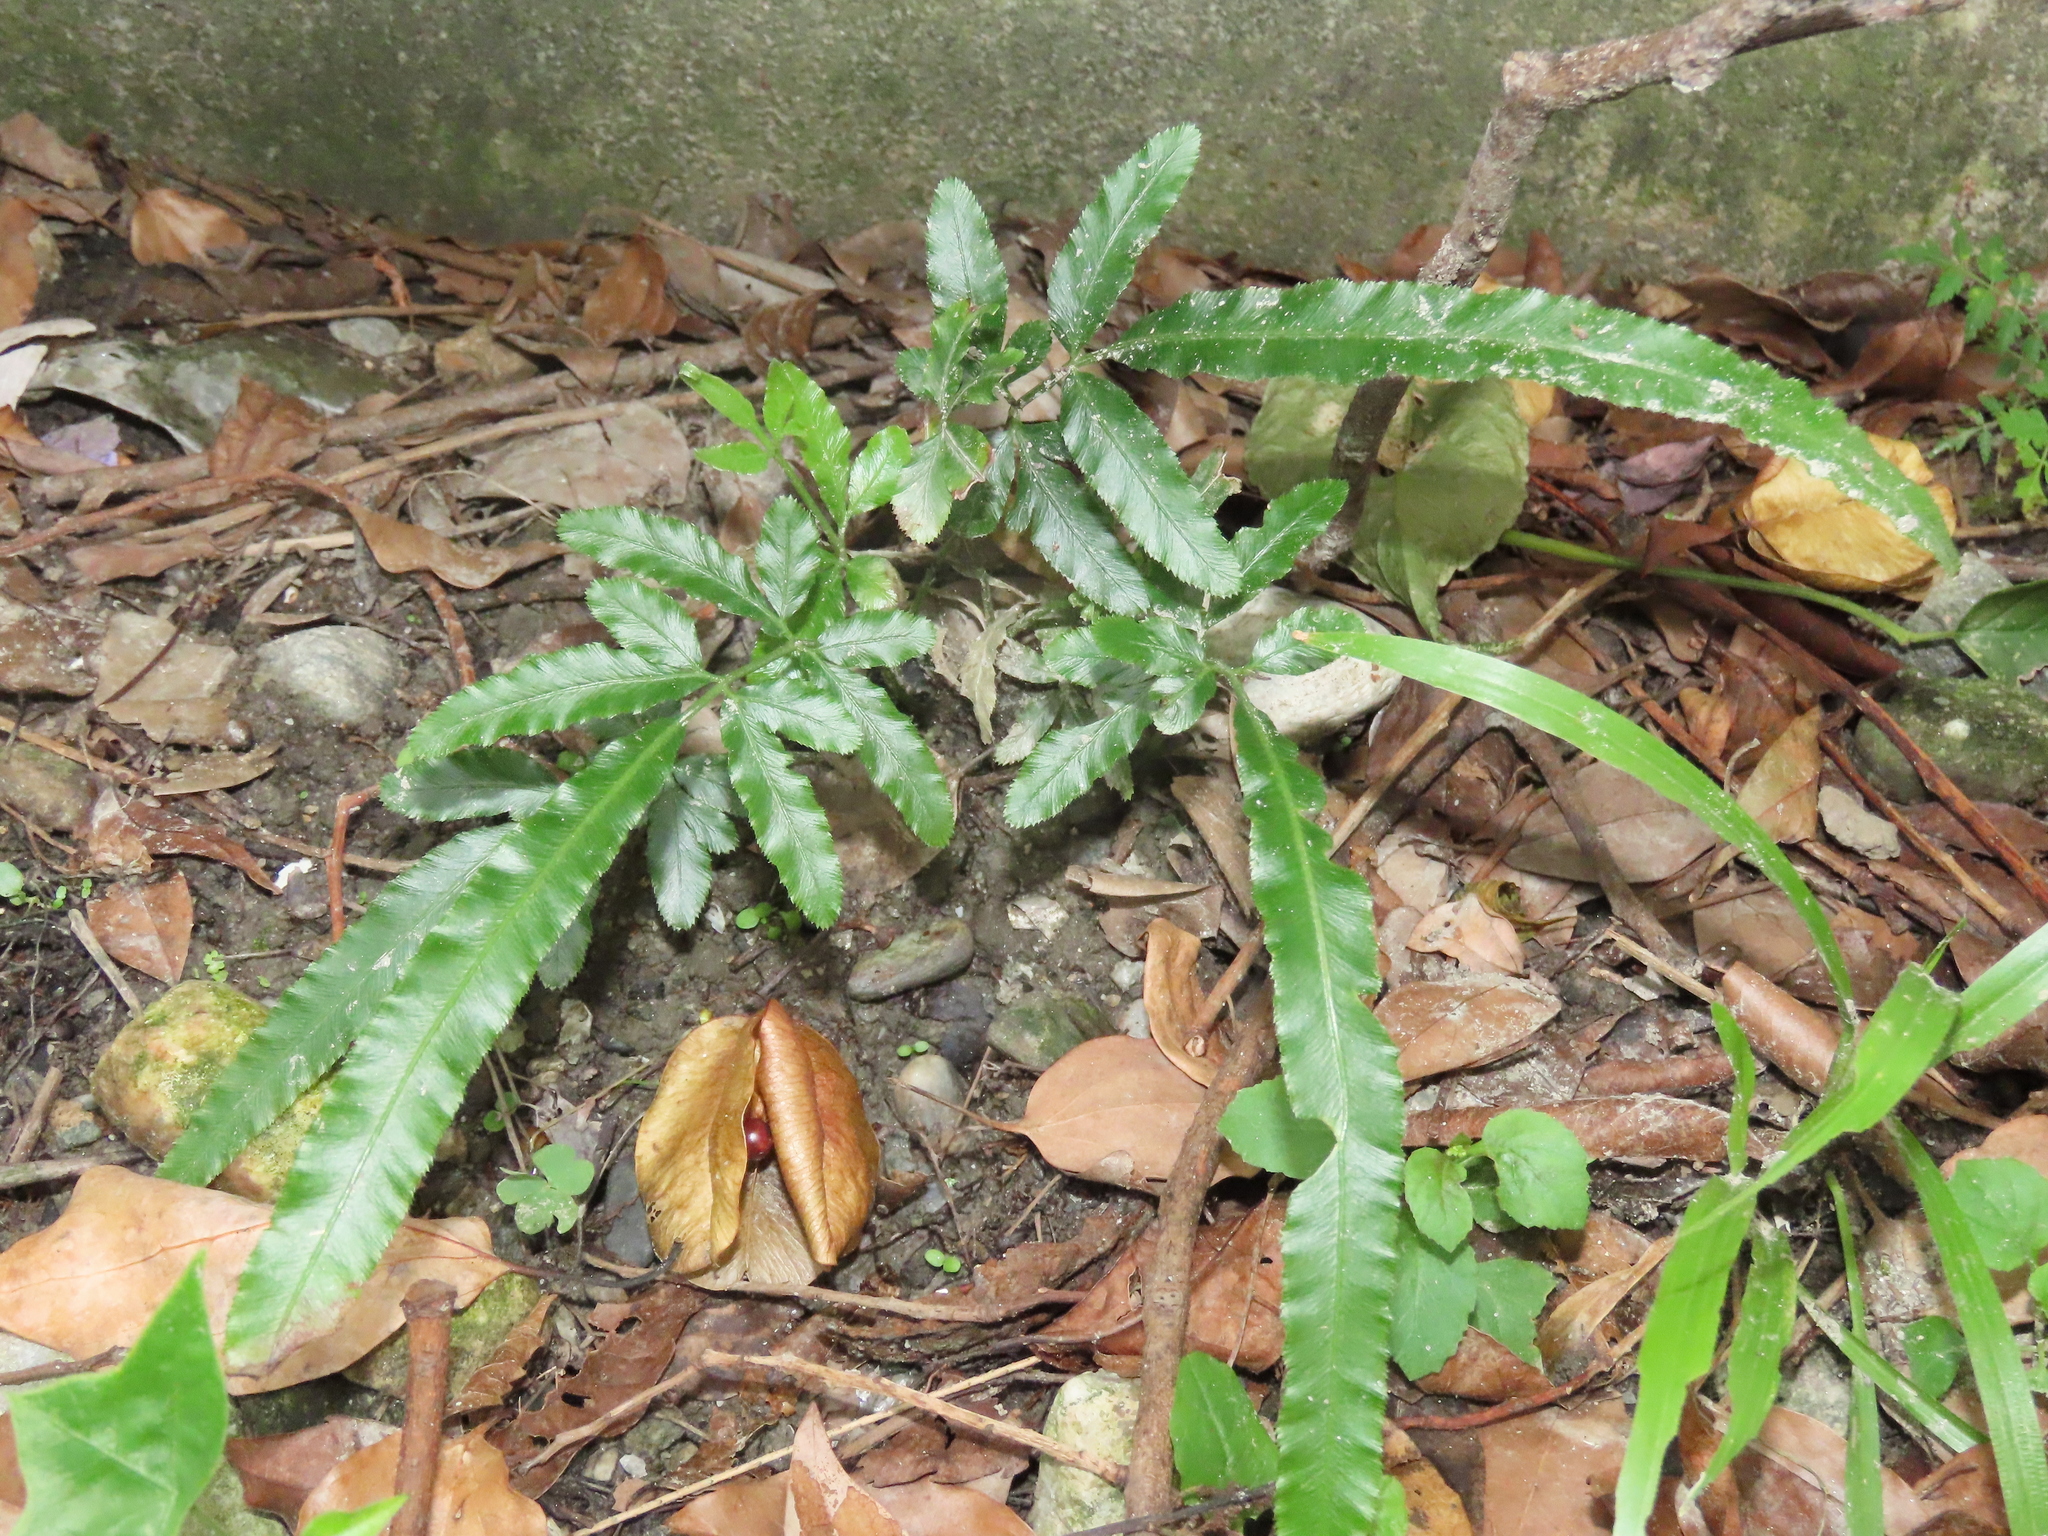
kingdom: Plantae
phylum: Tracheophyta
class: Polypodiopsida
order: Polypodiales
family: Pteridaceae
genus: Pteris
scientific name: Pteris ensiformis
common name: Sword brake
